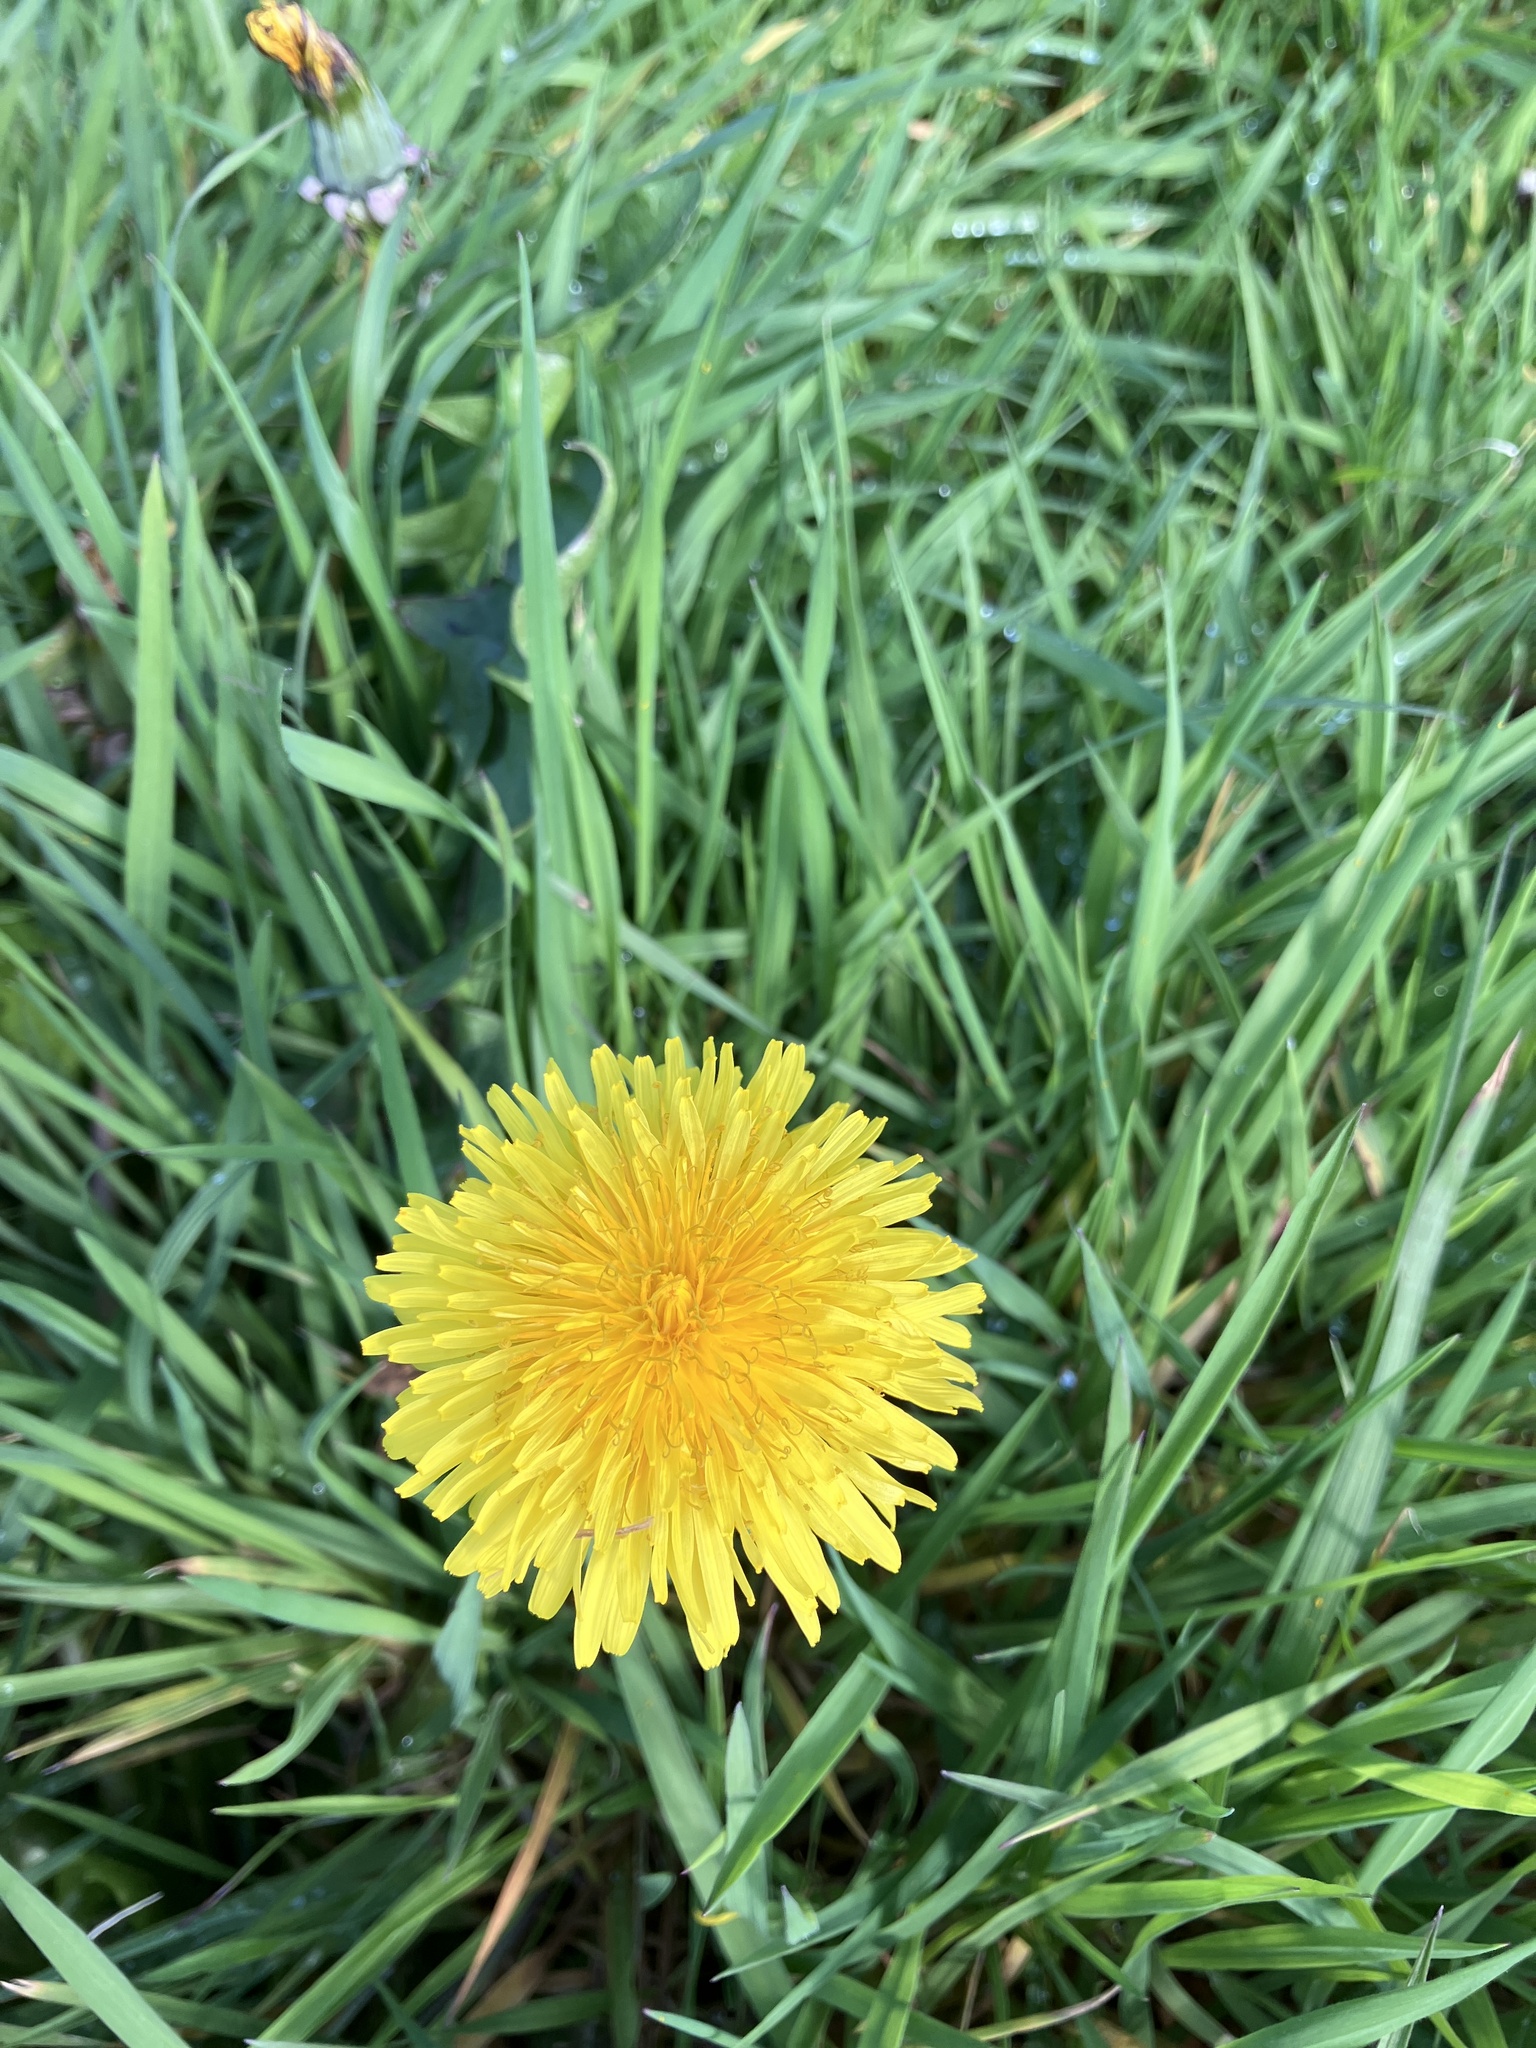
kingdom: Plantae
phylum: Tracheophyta
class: Magnoliopsida
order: Asterales
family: Asteraceae
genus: Taraxacum
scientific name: Taraxacum officinale
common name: Common dandelion
